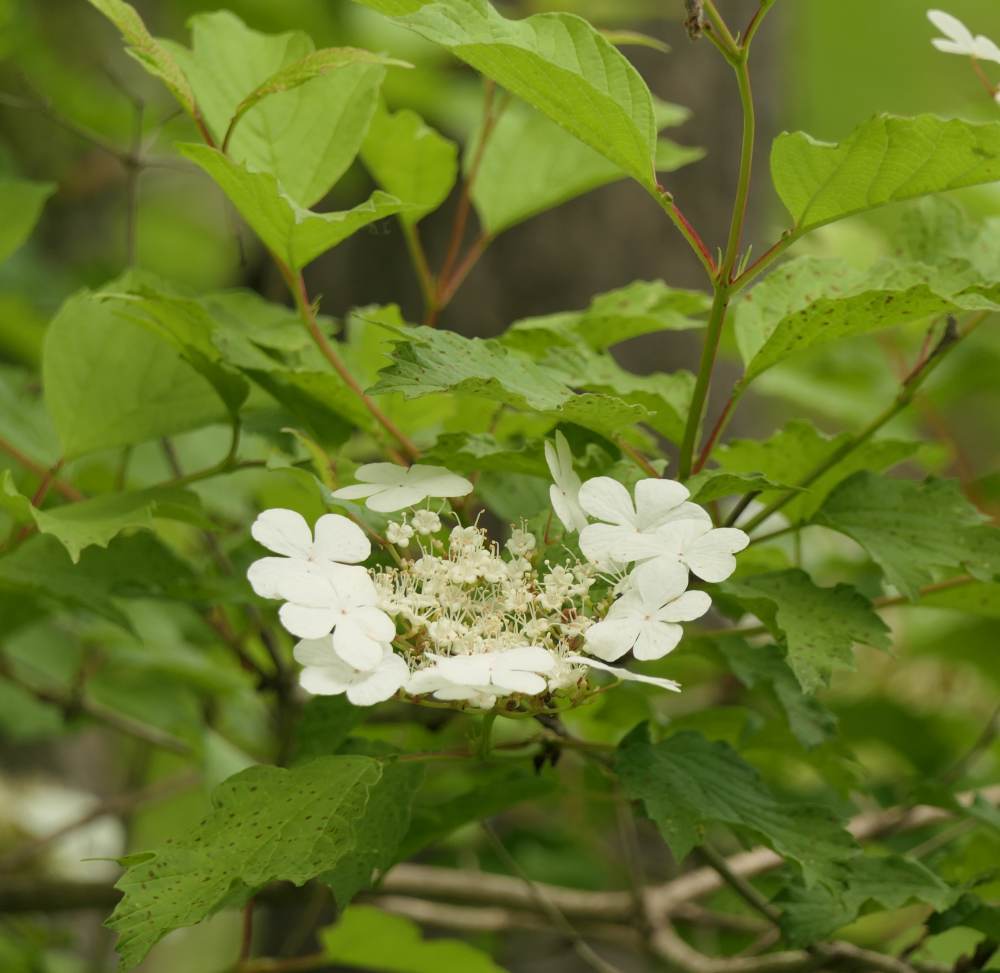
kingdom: Plantae
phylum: Tracheophyta
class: Magnoliopsida
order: Dipsacales
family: Viburnaceae
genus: Viburnum
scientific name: Viburnum opulus
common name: Guelder-rose
